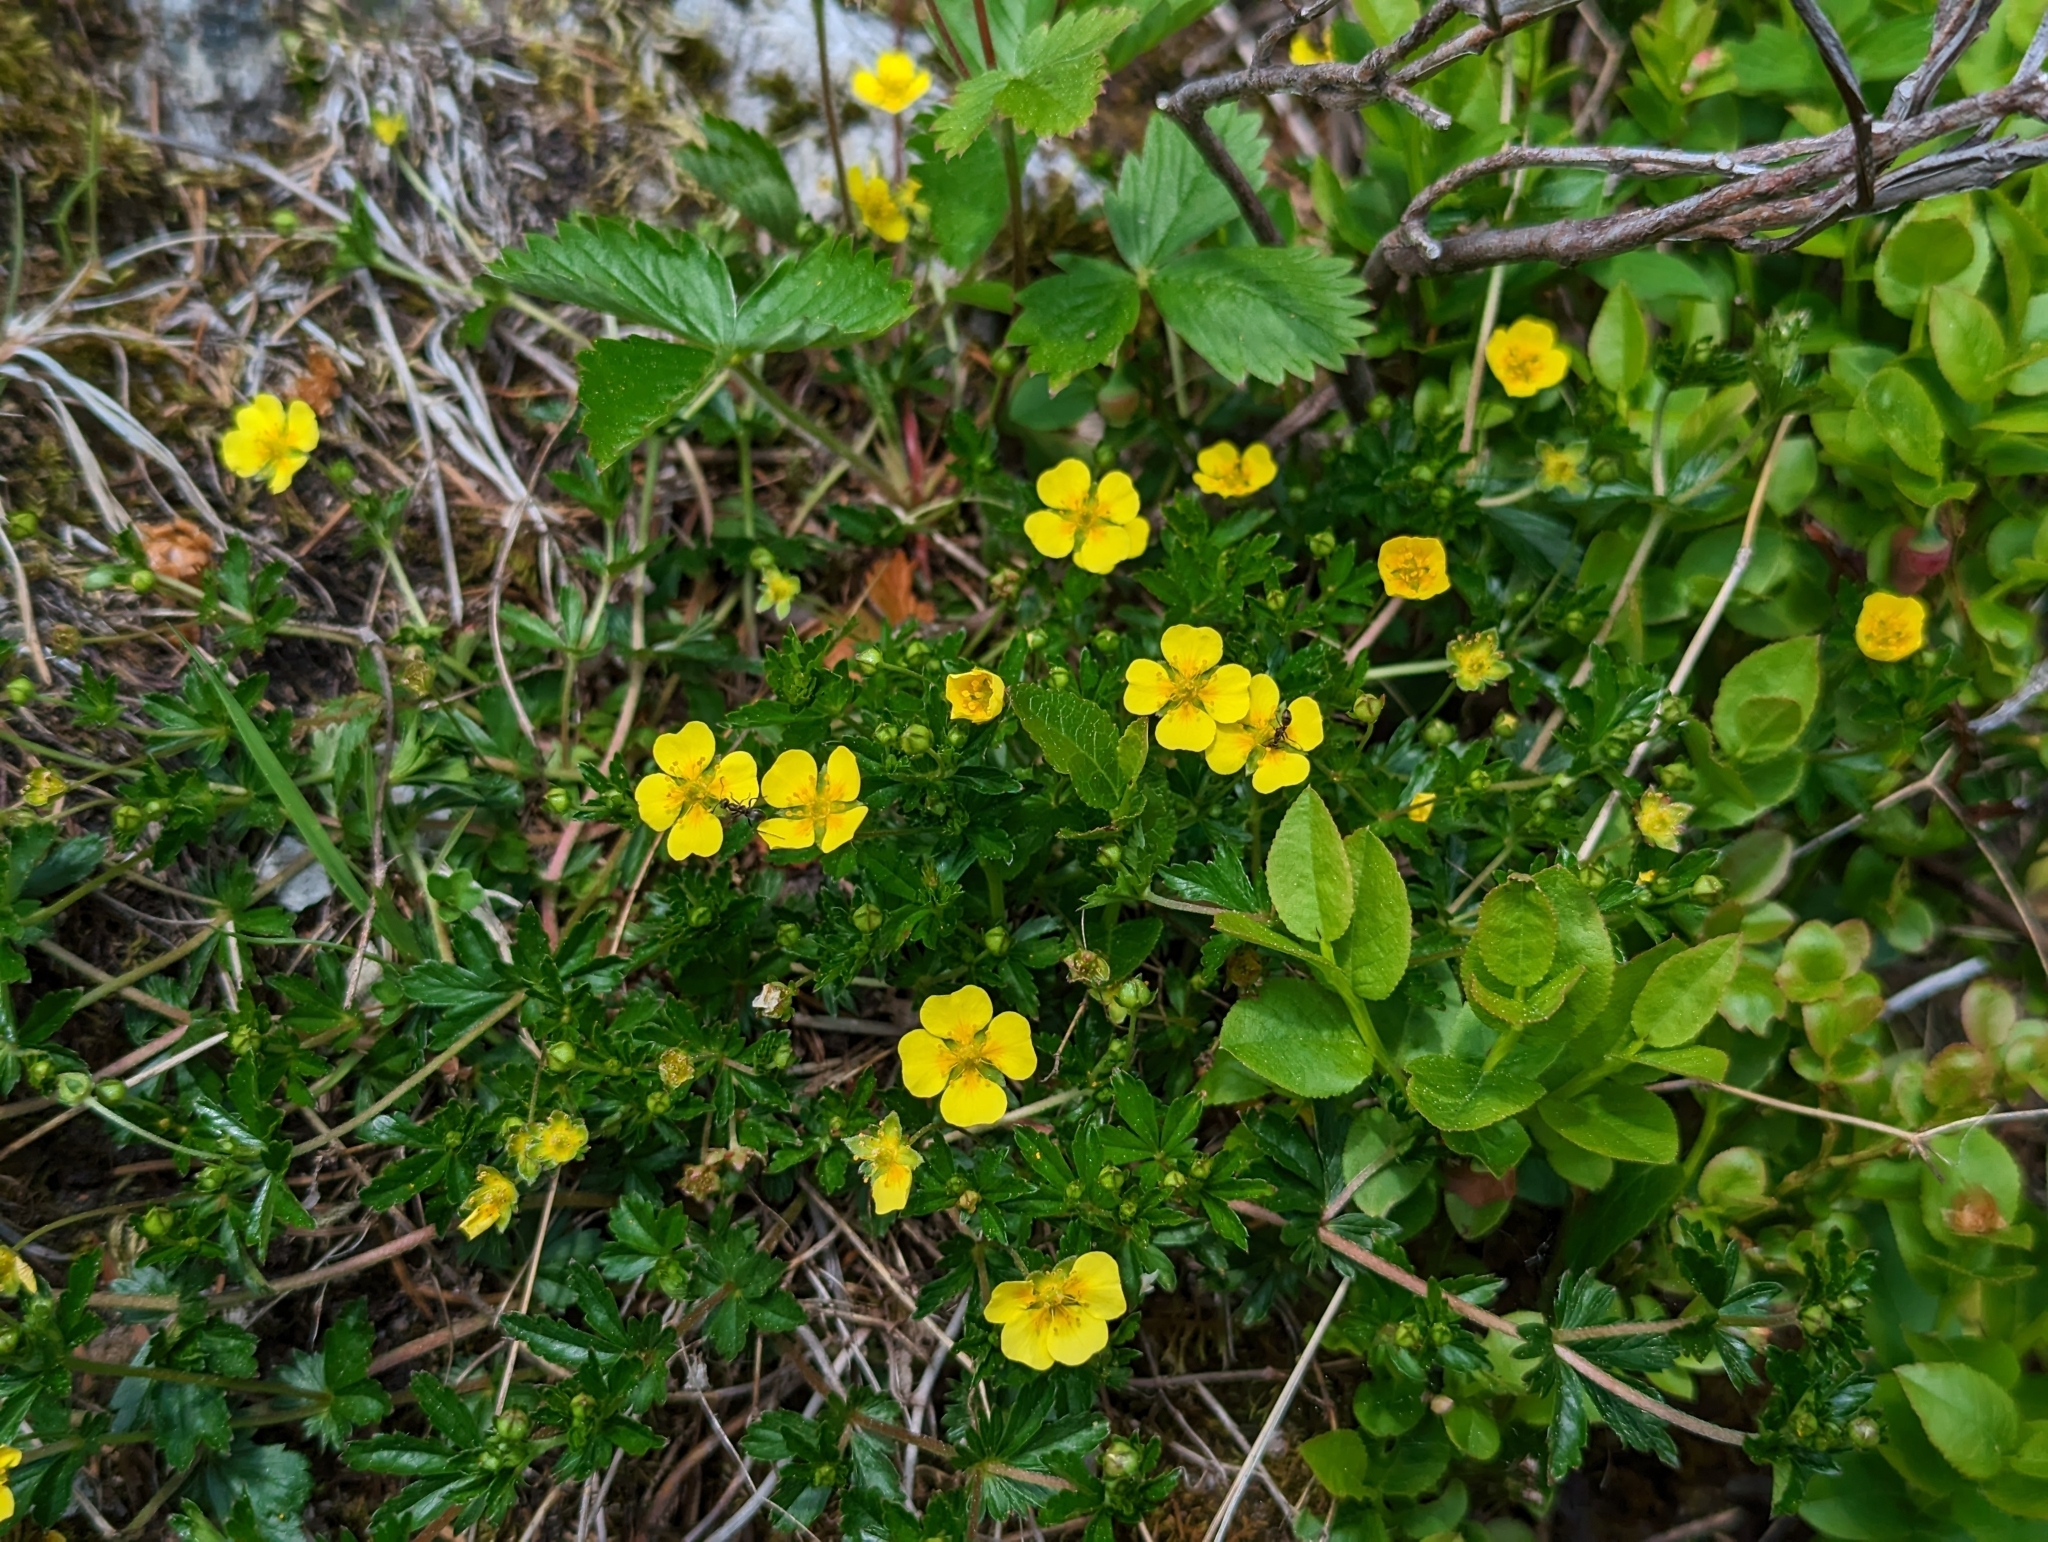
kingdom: Plantae
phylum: Tracheophyta
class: Magnoliopsida
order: Rosales
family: Rosaceae
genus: Potentilla
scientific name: Potentilla erecta
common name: Tormentil
